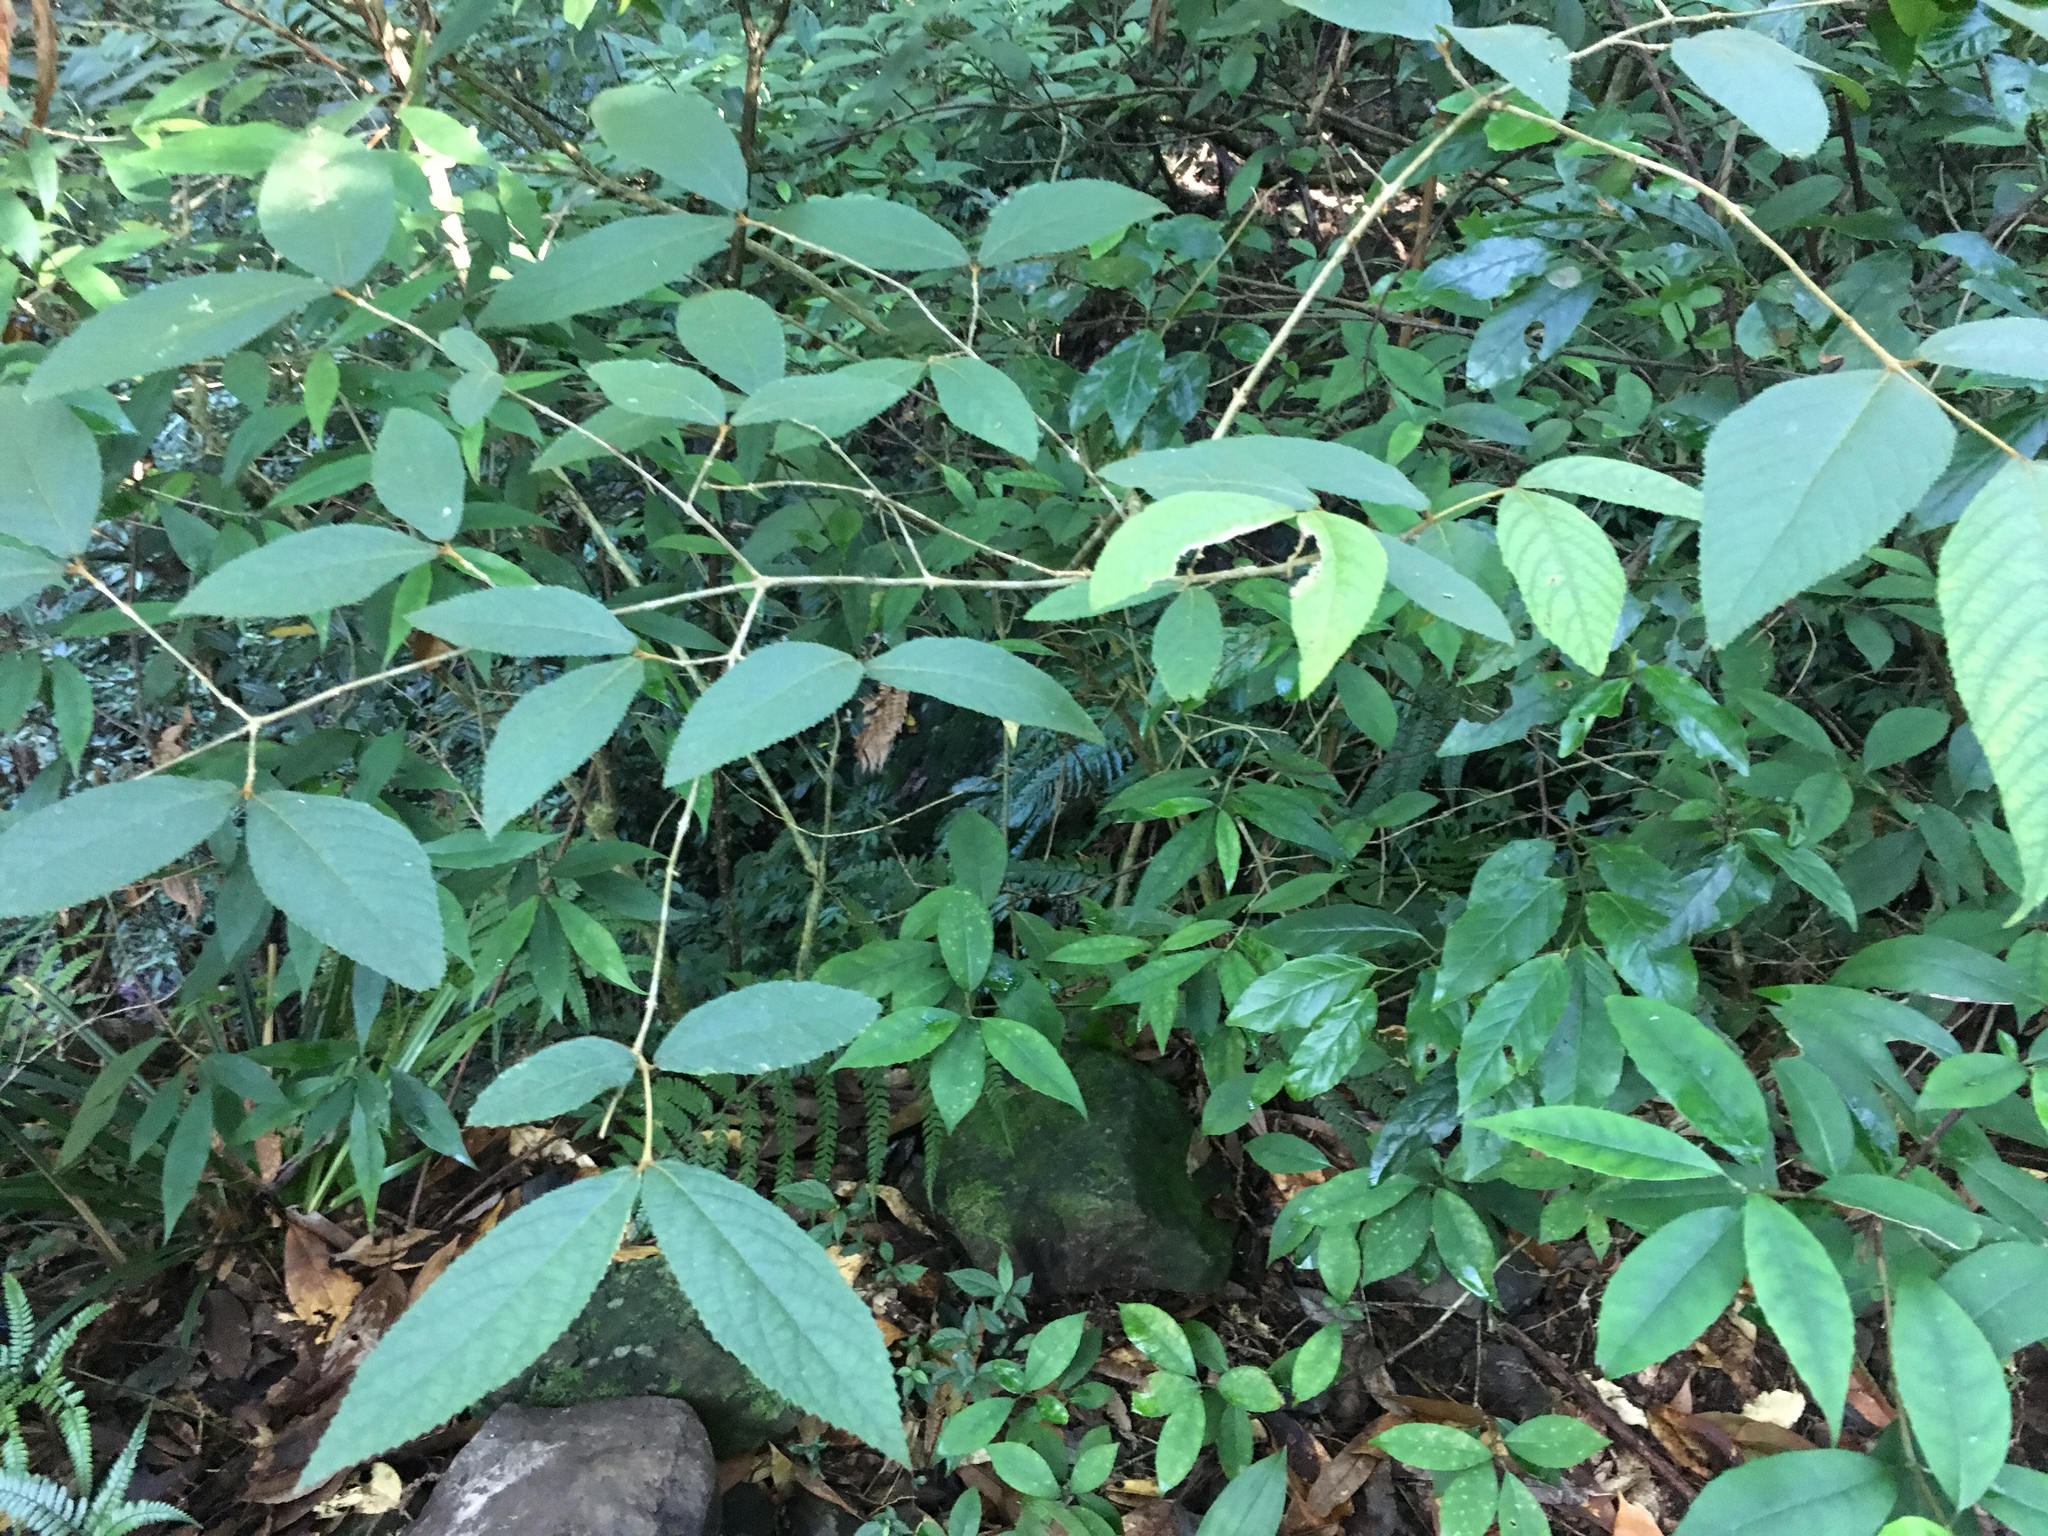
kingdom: Plantae
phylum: Tracheophyta
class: Magnoliopsida
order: Lamiales
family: Lamiaceae
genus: Callicarpa
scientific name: Callicarpa pedunculata
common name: Velvetleaf
